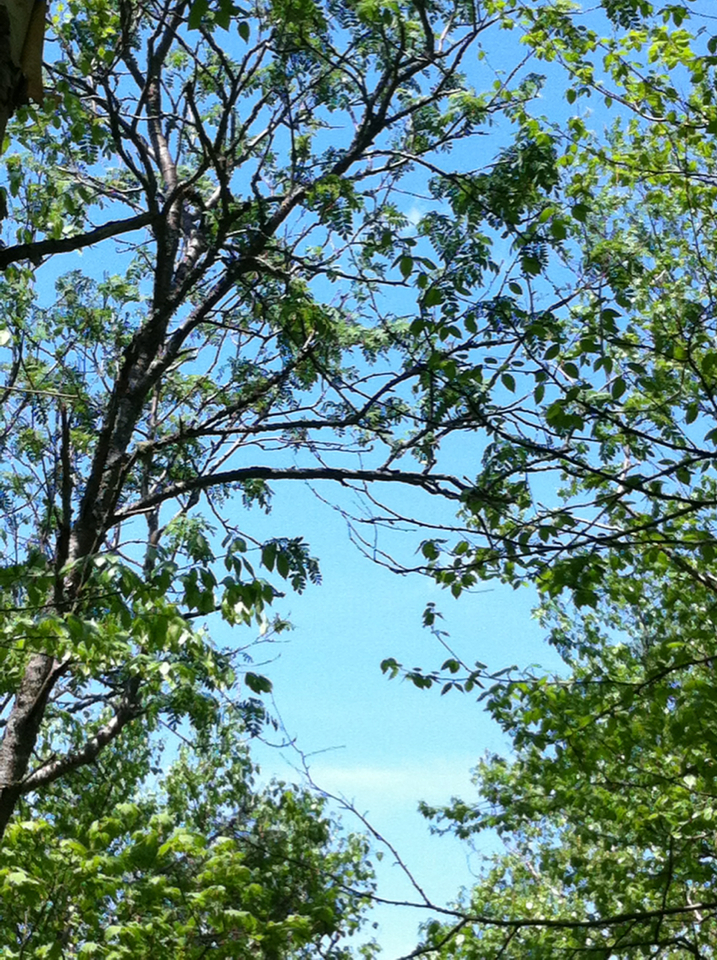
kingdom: Plantae
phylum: Tracheophyta
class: Magnoliopsida
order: Rosales
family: Rosaceae
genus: Sorbus
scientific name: Sorbus americana
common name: American mountain-ash
